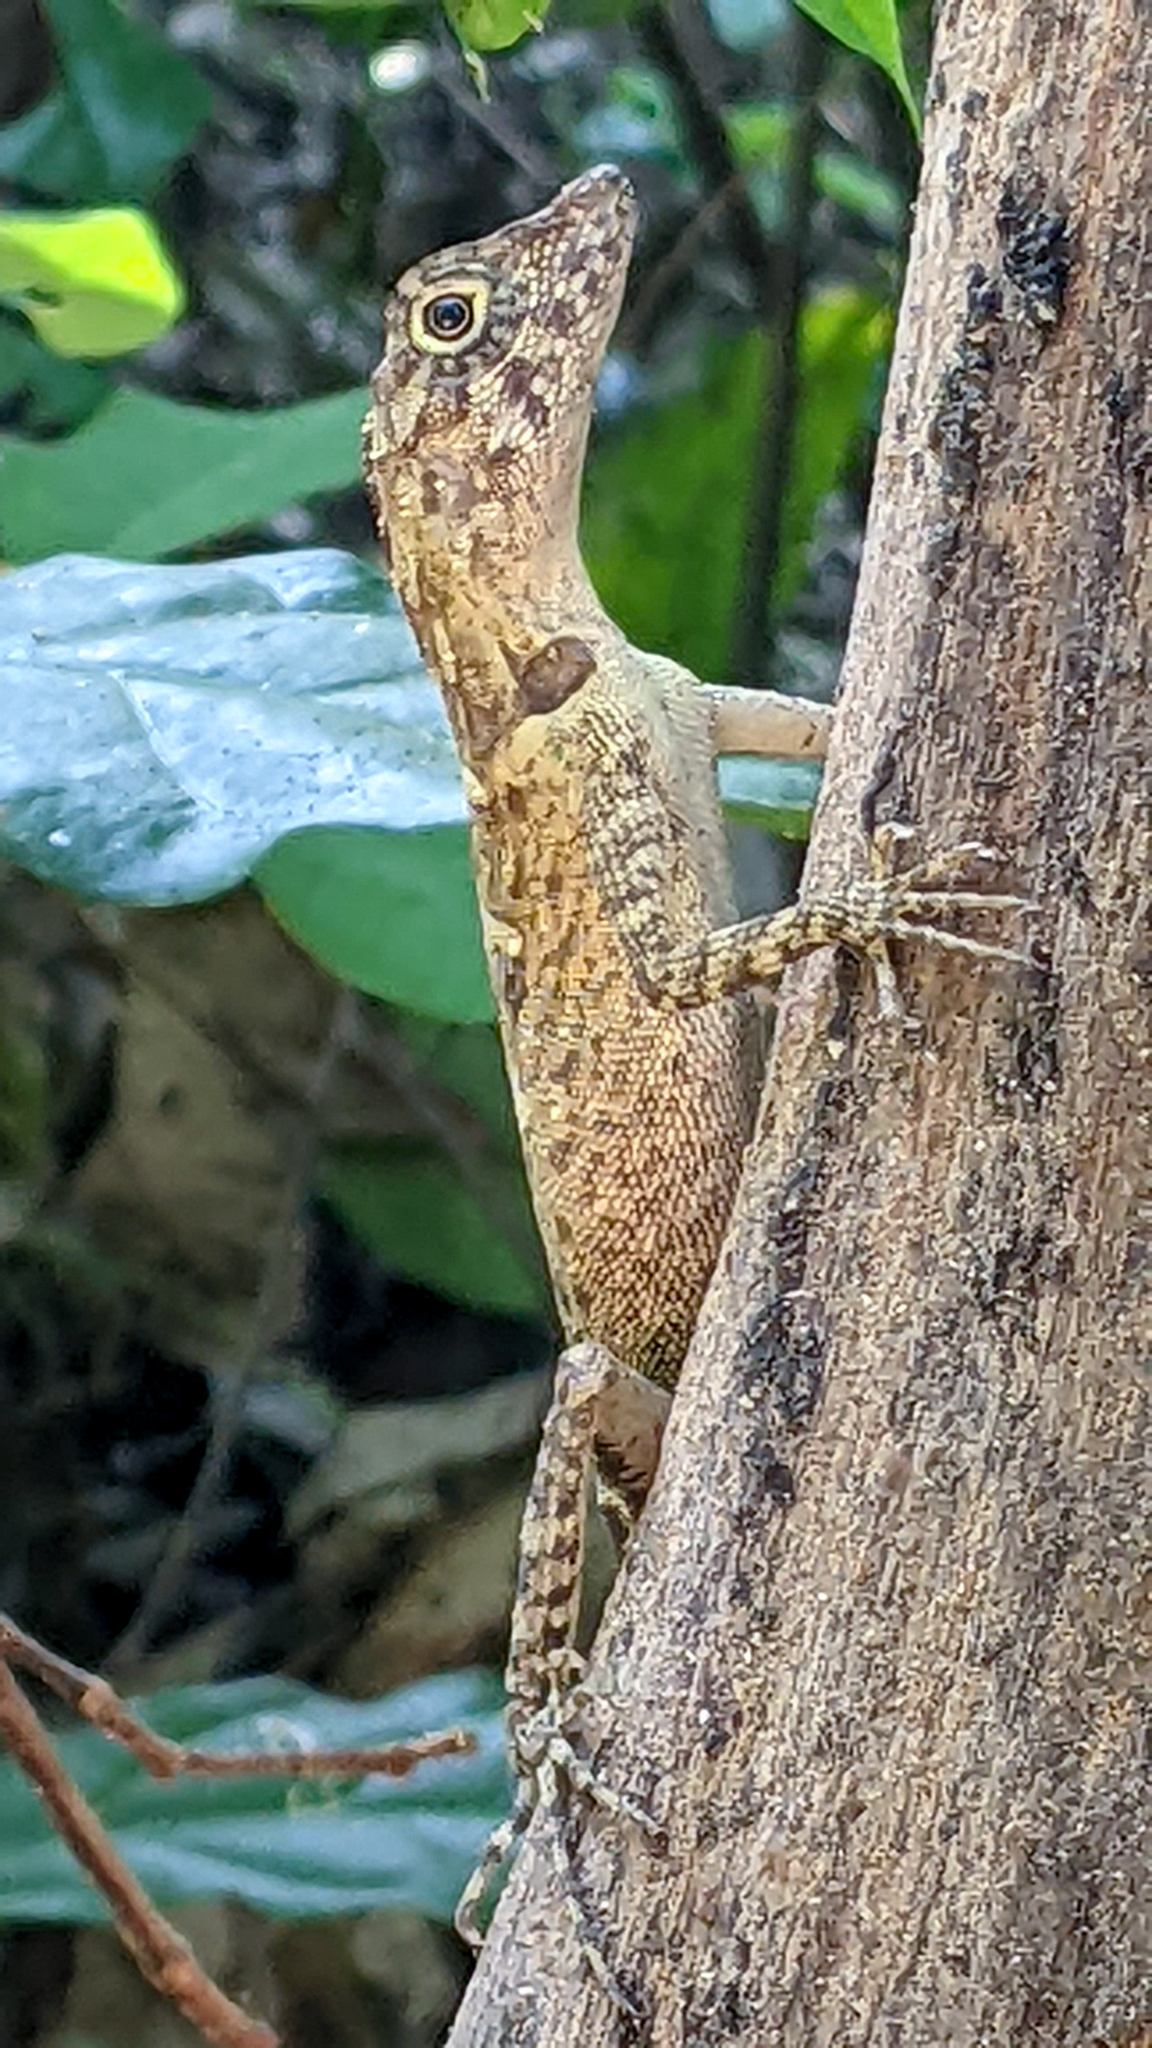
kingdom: Animalia
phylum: Chordata
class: Squamata
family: Agamidae
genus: Coryphophylax
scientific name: Coryphophylax subcristatus
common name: Short-crested bay island forest lizard
